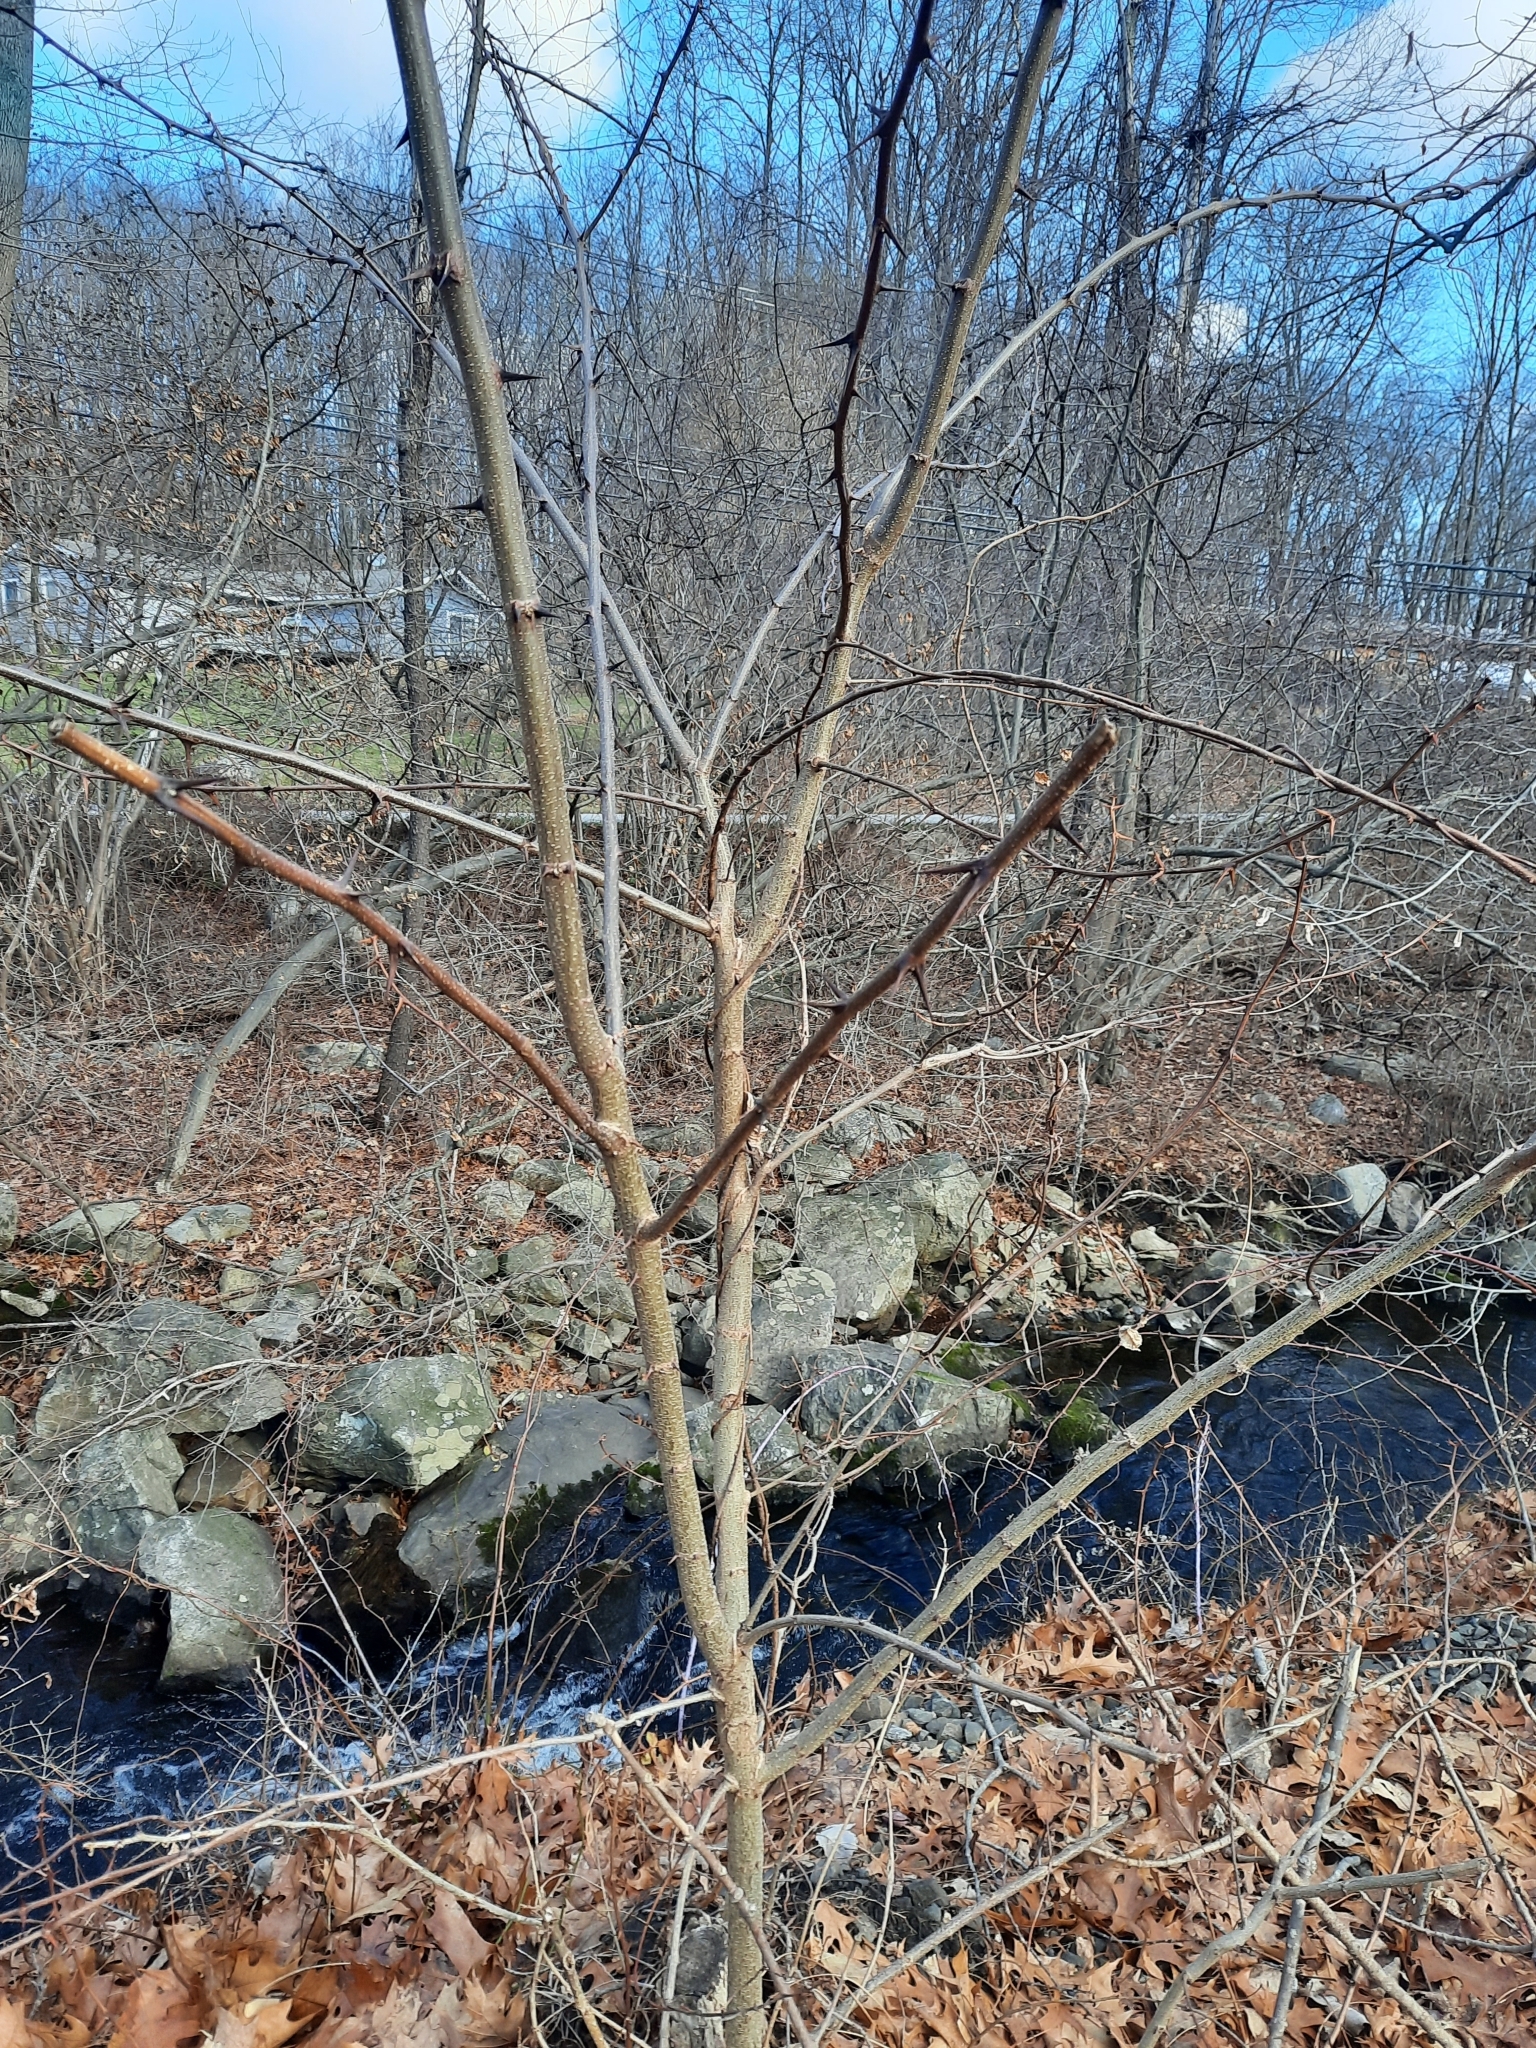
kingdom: Plantae
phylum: Tracheophyta
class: Magnoliopsida
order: Fabales
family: Fabaceae
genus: Robinia
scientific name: Robinia pseudoacacia
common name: Black locust
